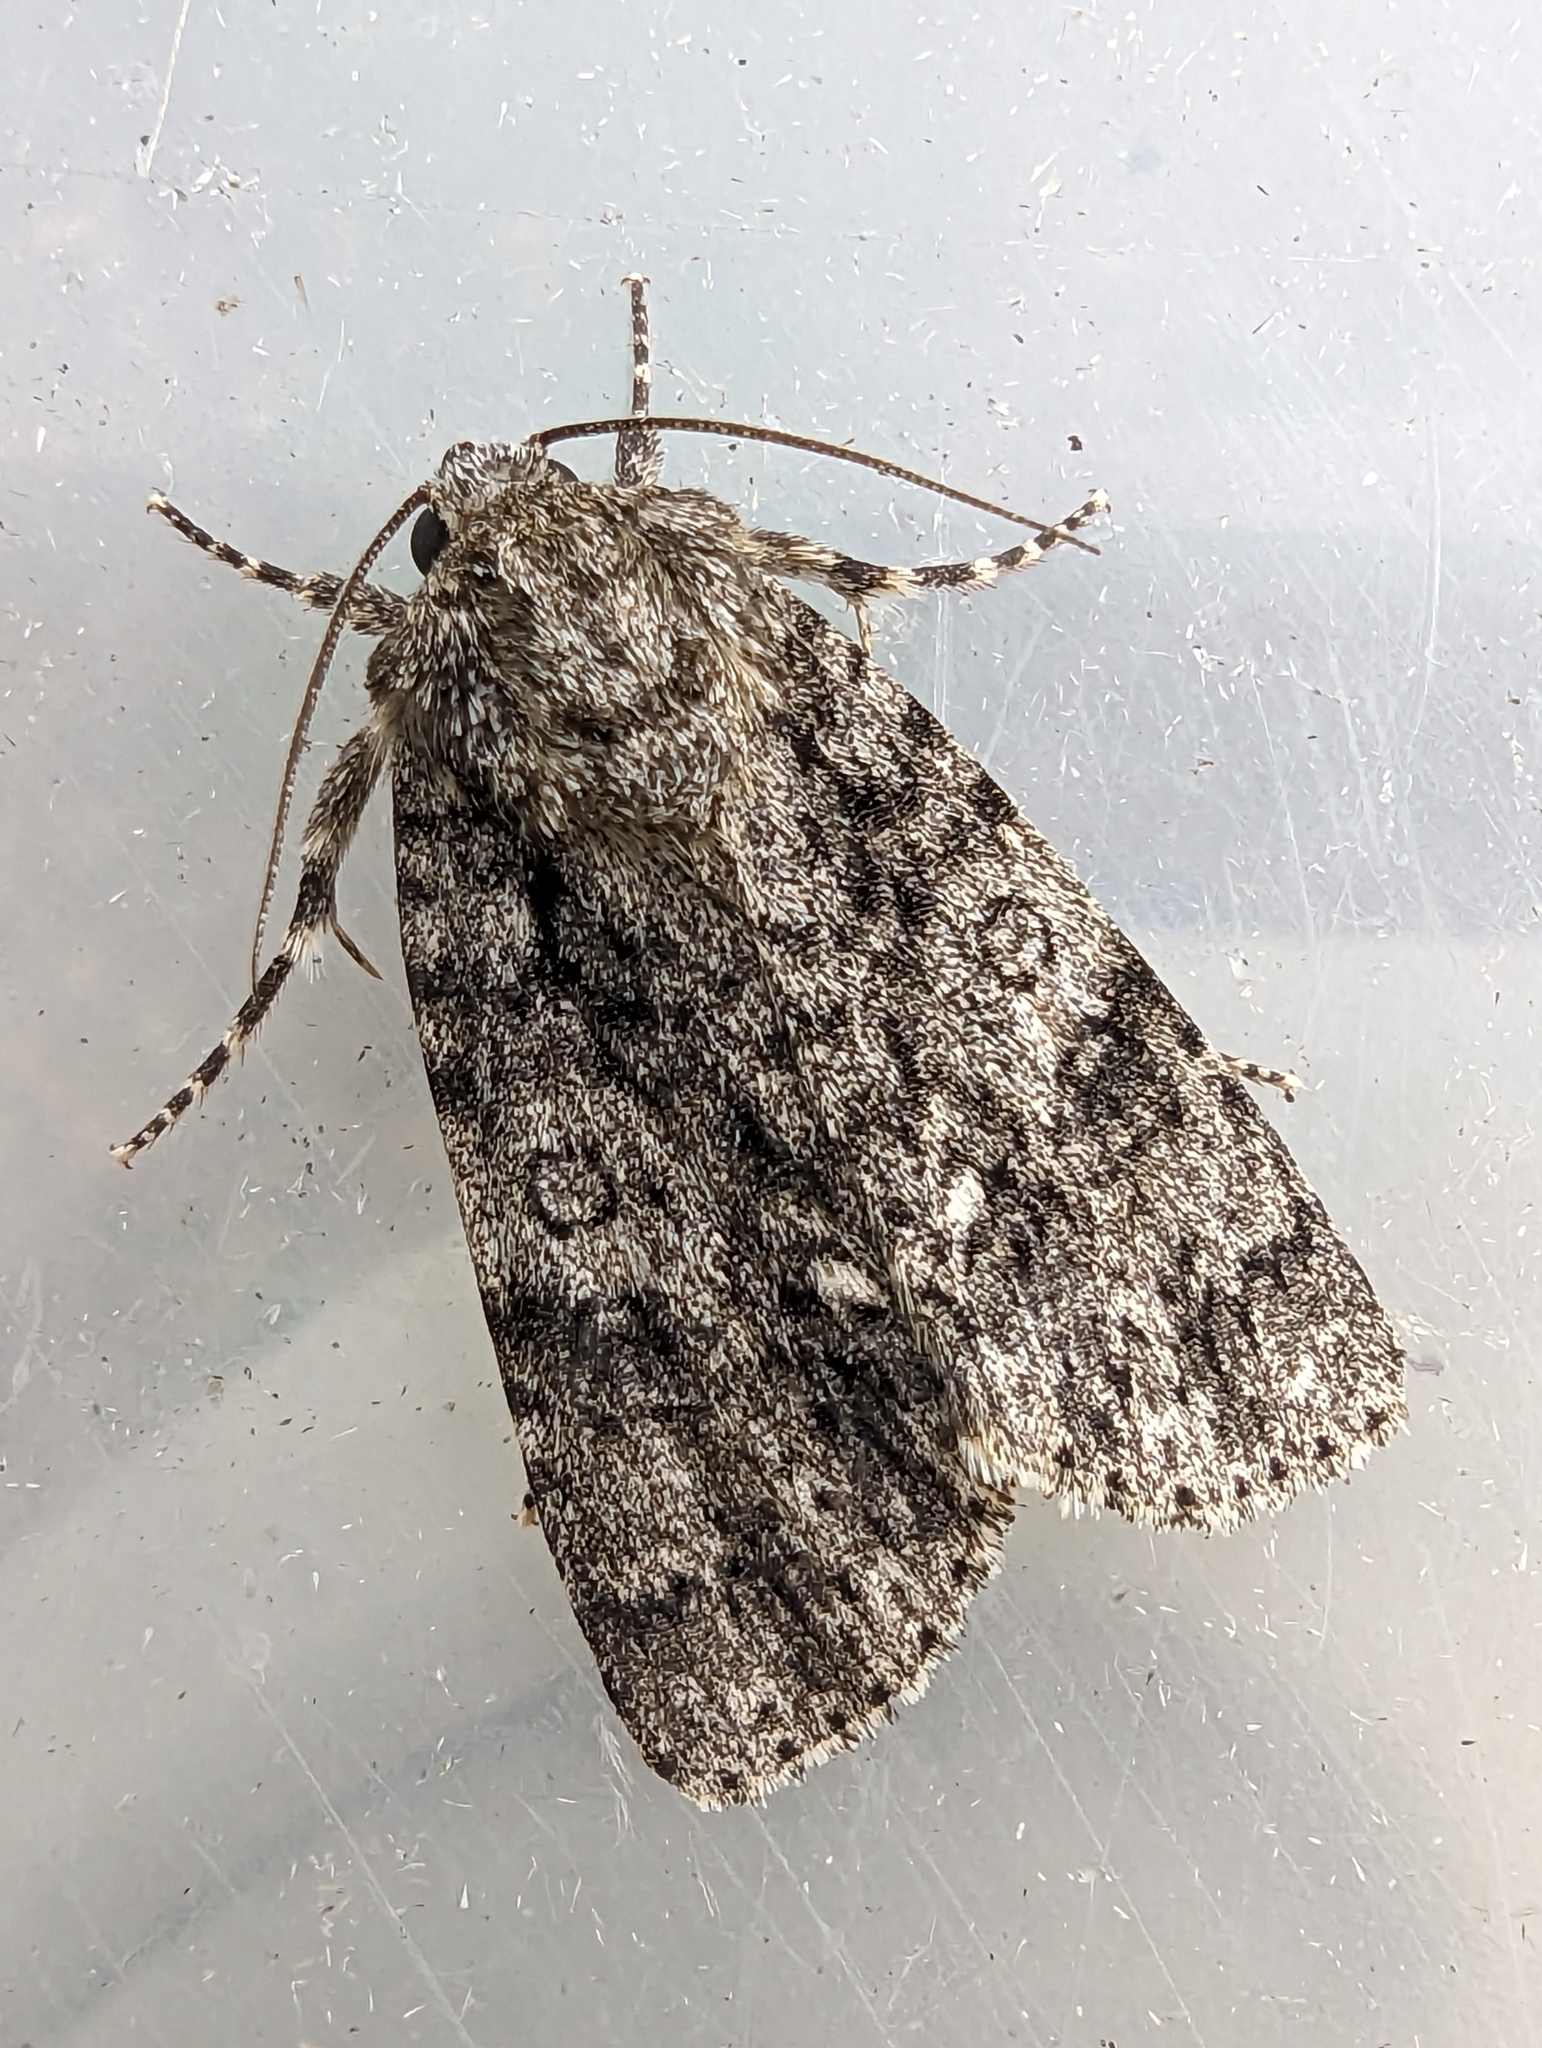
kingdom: Animalia
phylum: Arthropoda
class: Insecta
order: Lepidoptera
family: Noctuidae
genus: Acronicta
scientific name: Acronicta rumicis
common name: Knot grass
